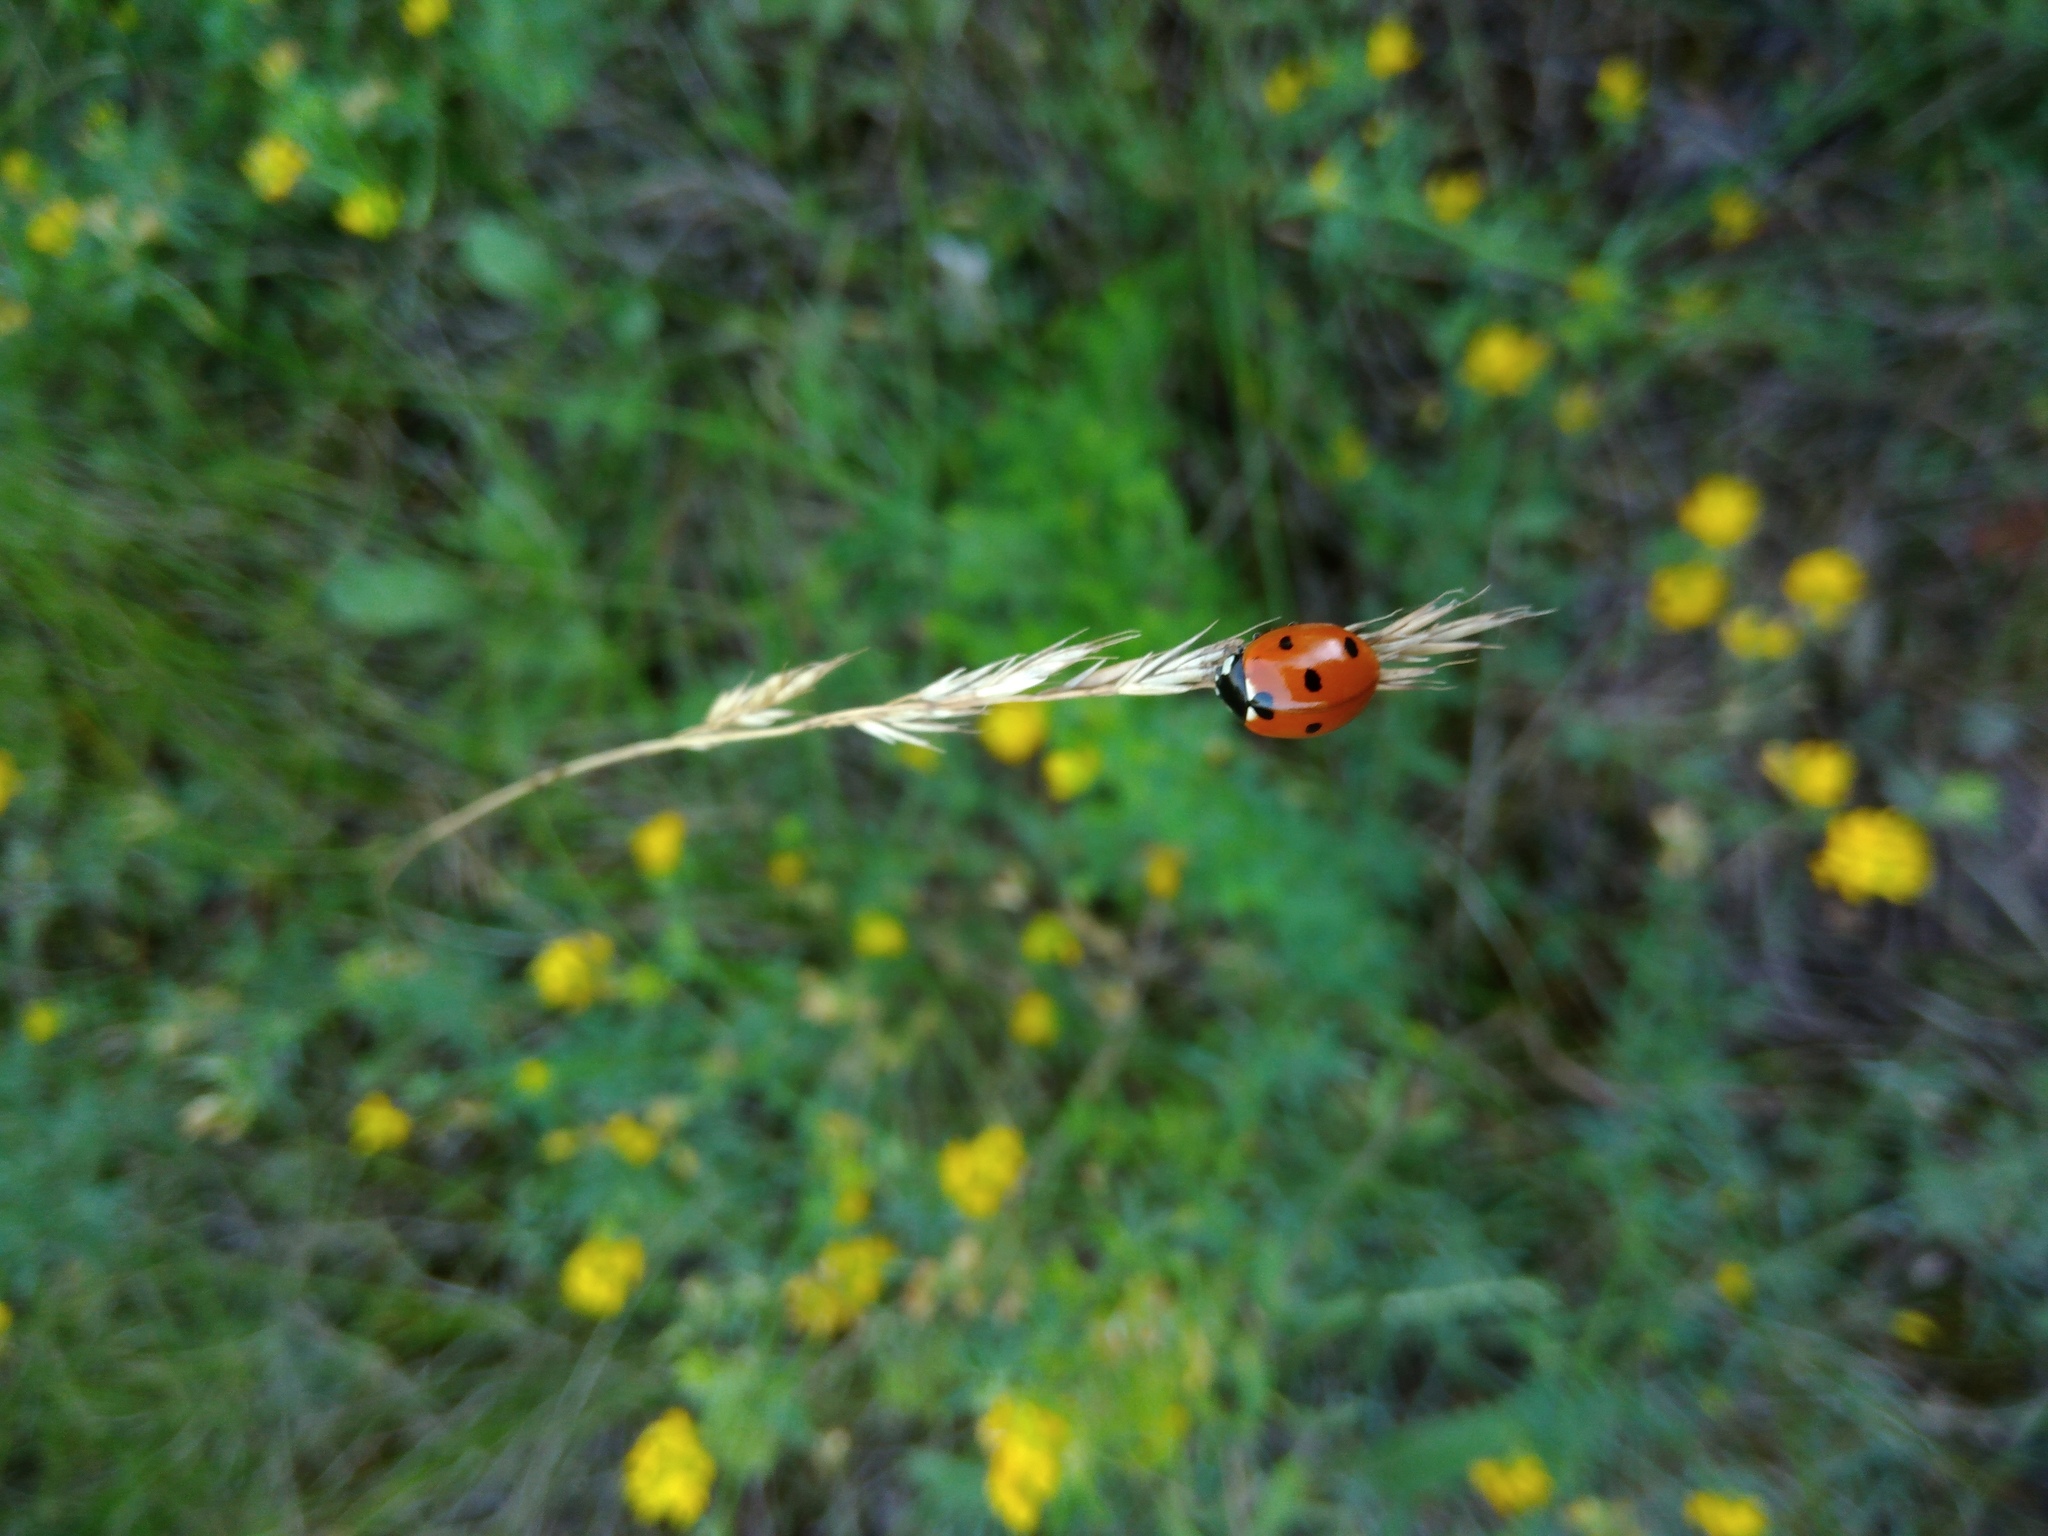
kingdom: Animalia
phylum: Arthropoda
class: Insecta
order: Coleoptera
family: Coccinellidae
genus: Coccinella
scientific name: Coccinella septempunctata
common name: Sevenspotted lady beetle
